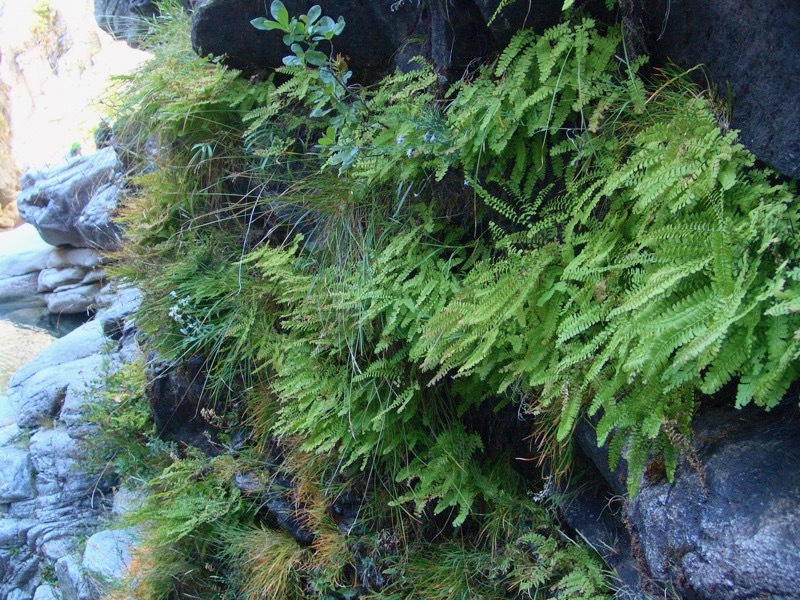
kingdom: Plantae
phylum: Tracheophyta
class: Polypodiopsida
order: Polypodiales
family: Pteridaceae
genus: Adiantum
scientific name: Adiantum aleuticum
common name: Aleutian maidenhair fern
